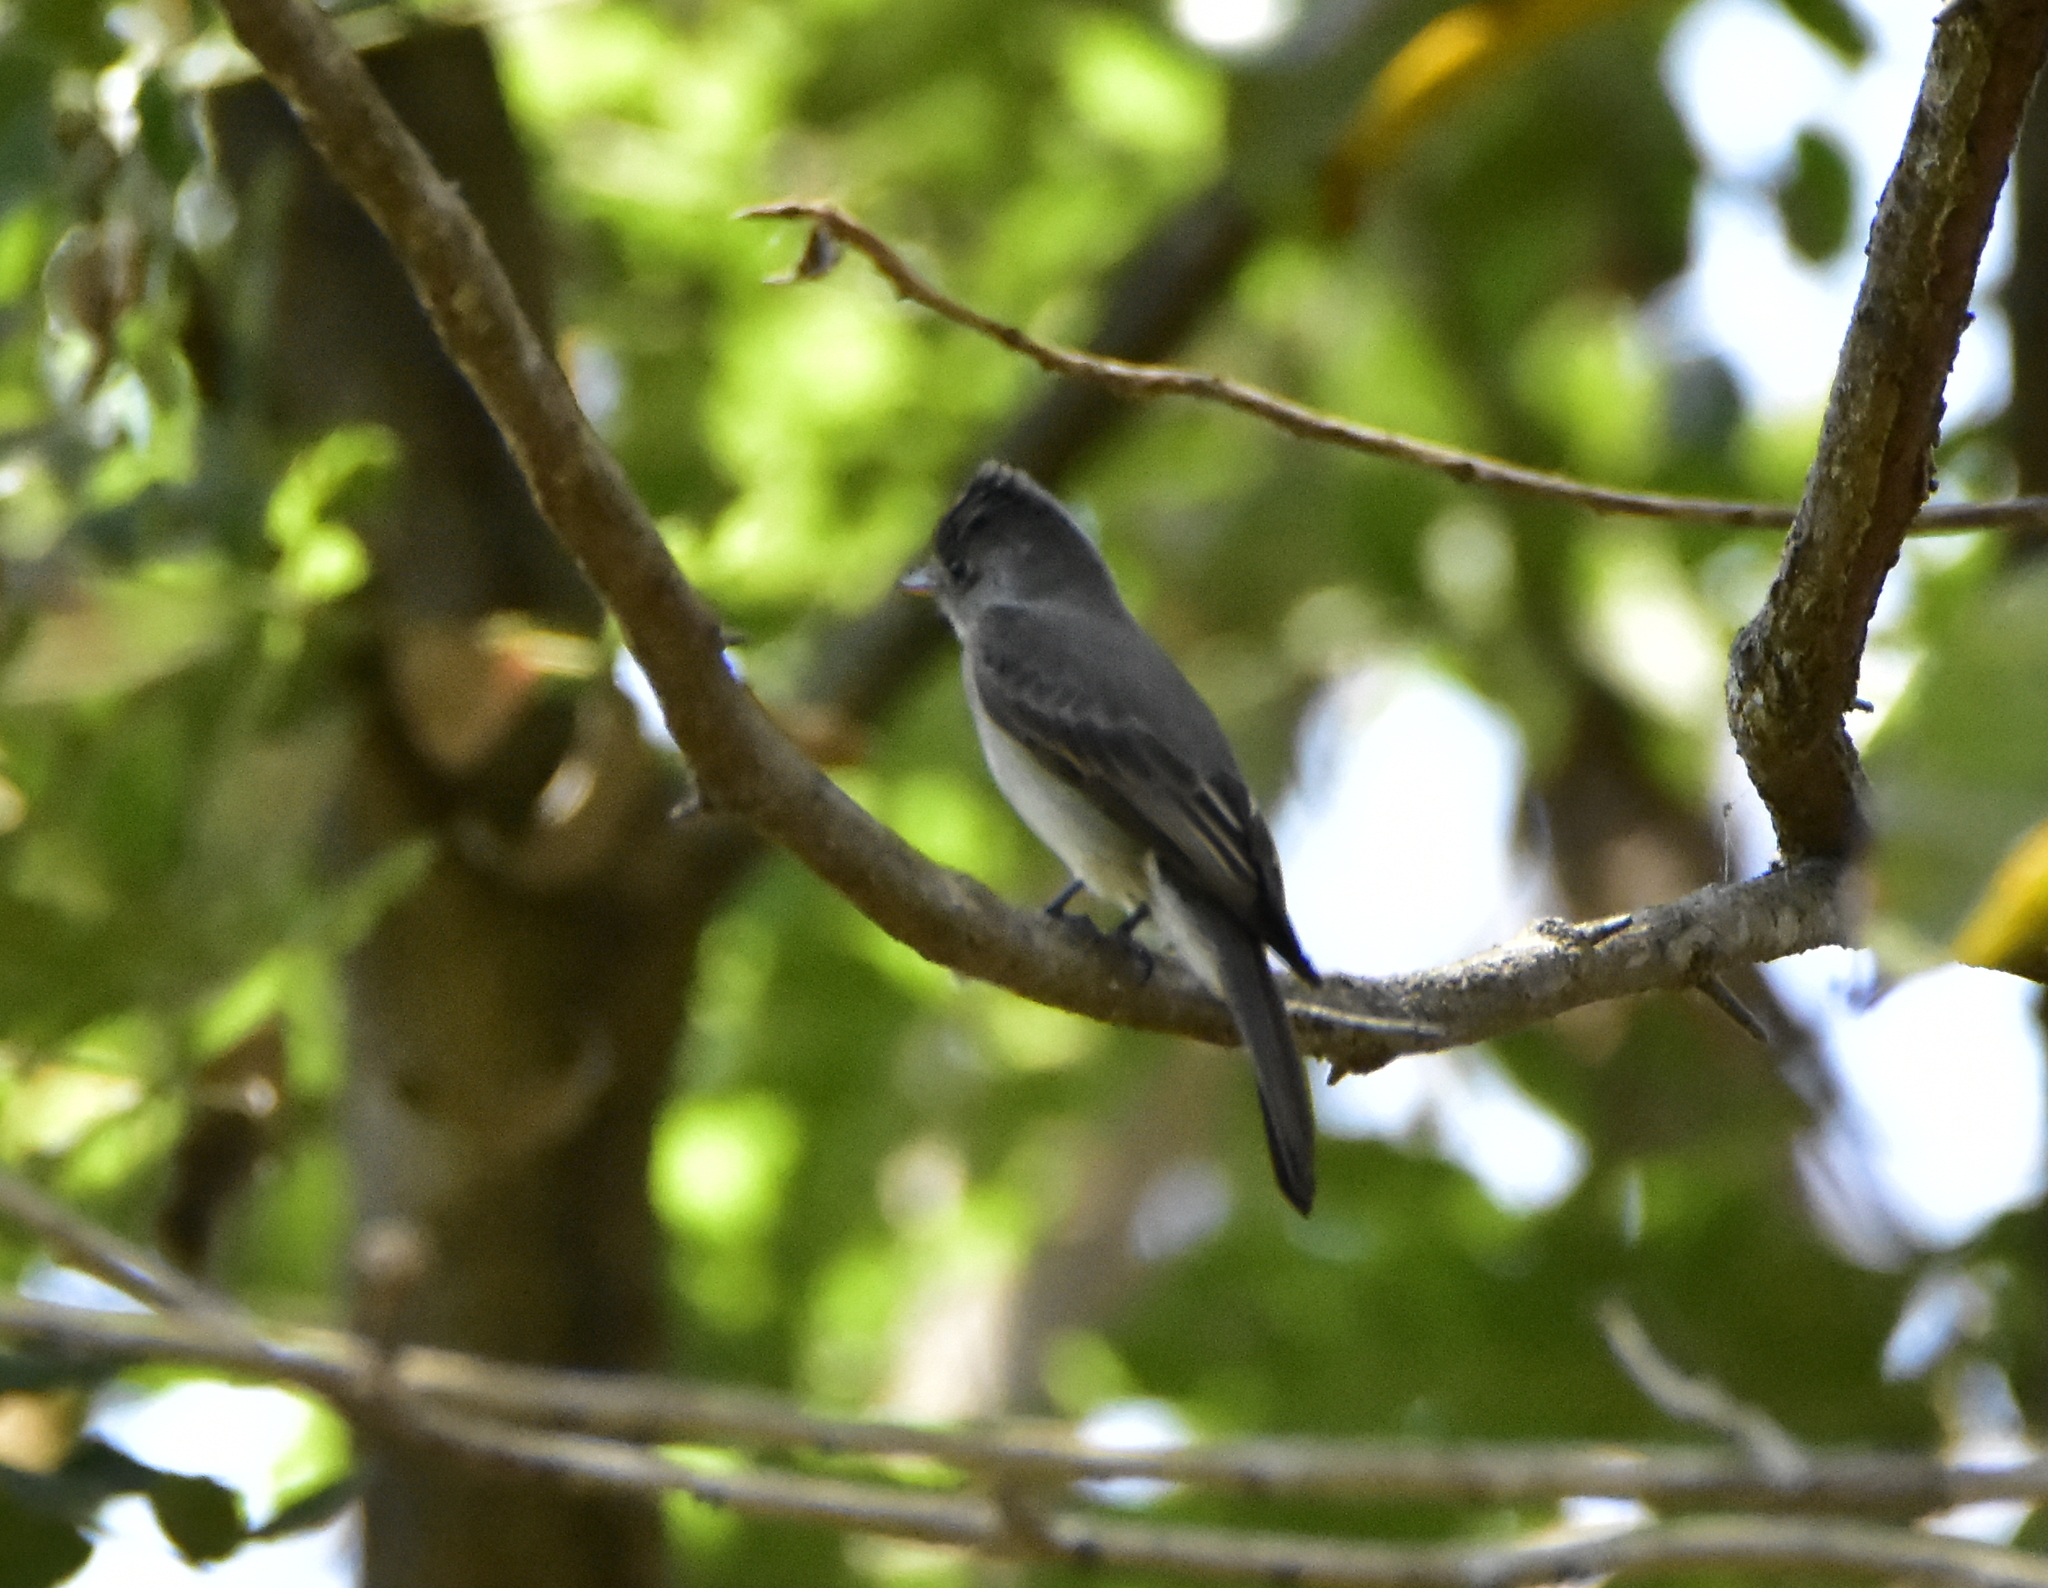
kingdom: Animalia
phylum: Chordata
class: Aves
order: Passeriformes
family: Tyrannidae
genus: Contopus
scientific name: Contopus pertinax
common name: Greater pewee
